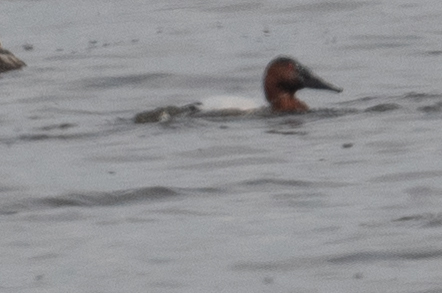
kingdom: Animalia
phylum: Chordata
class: Aves
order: Anseriformes
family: Anatidae
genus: Aythya
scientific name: Aythya valisineria
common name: Canvasback
